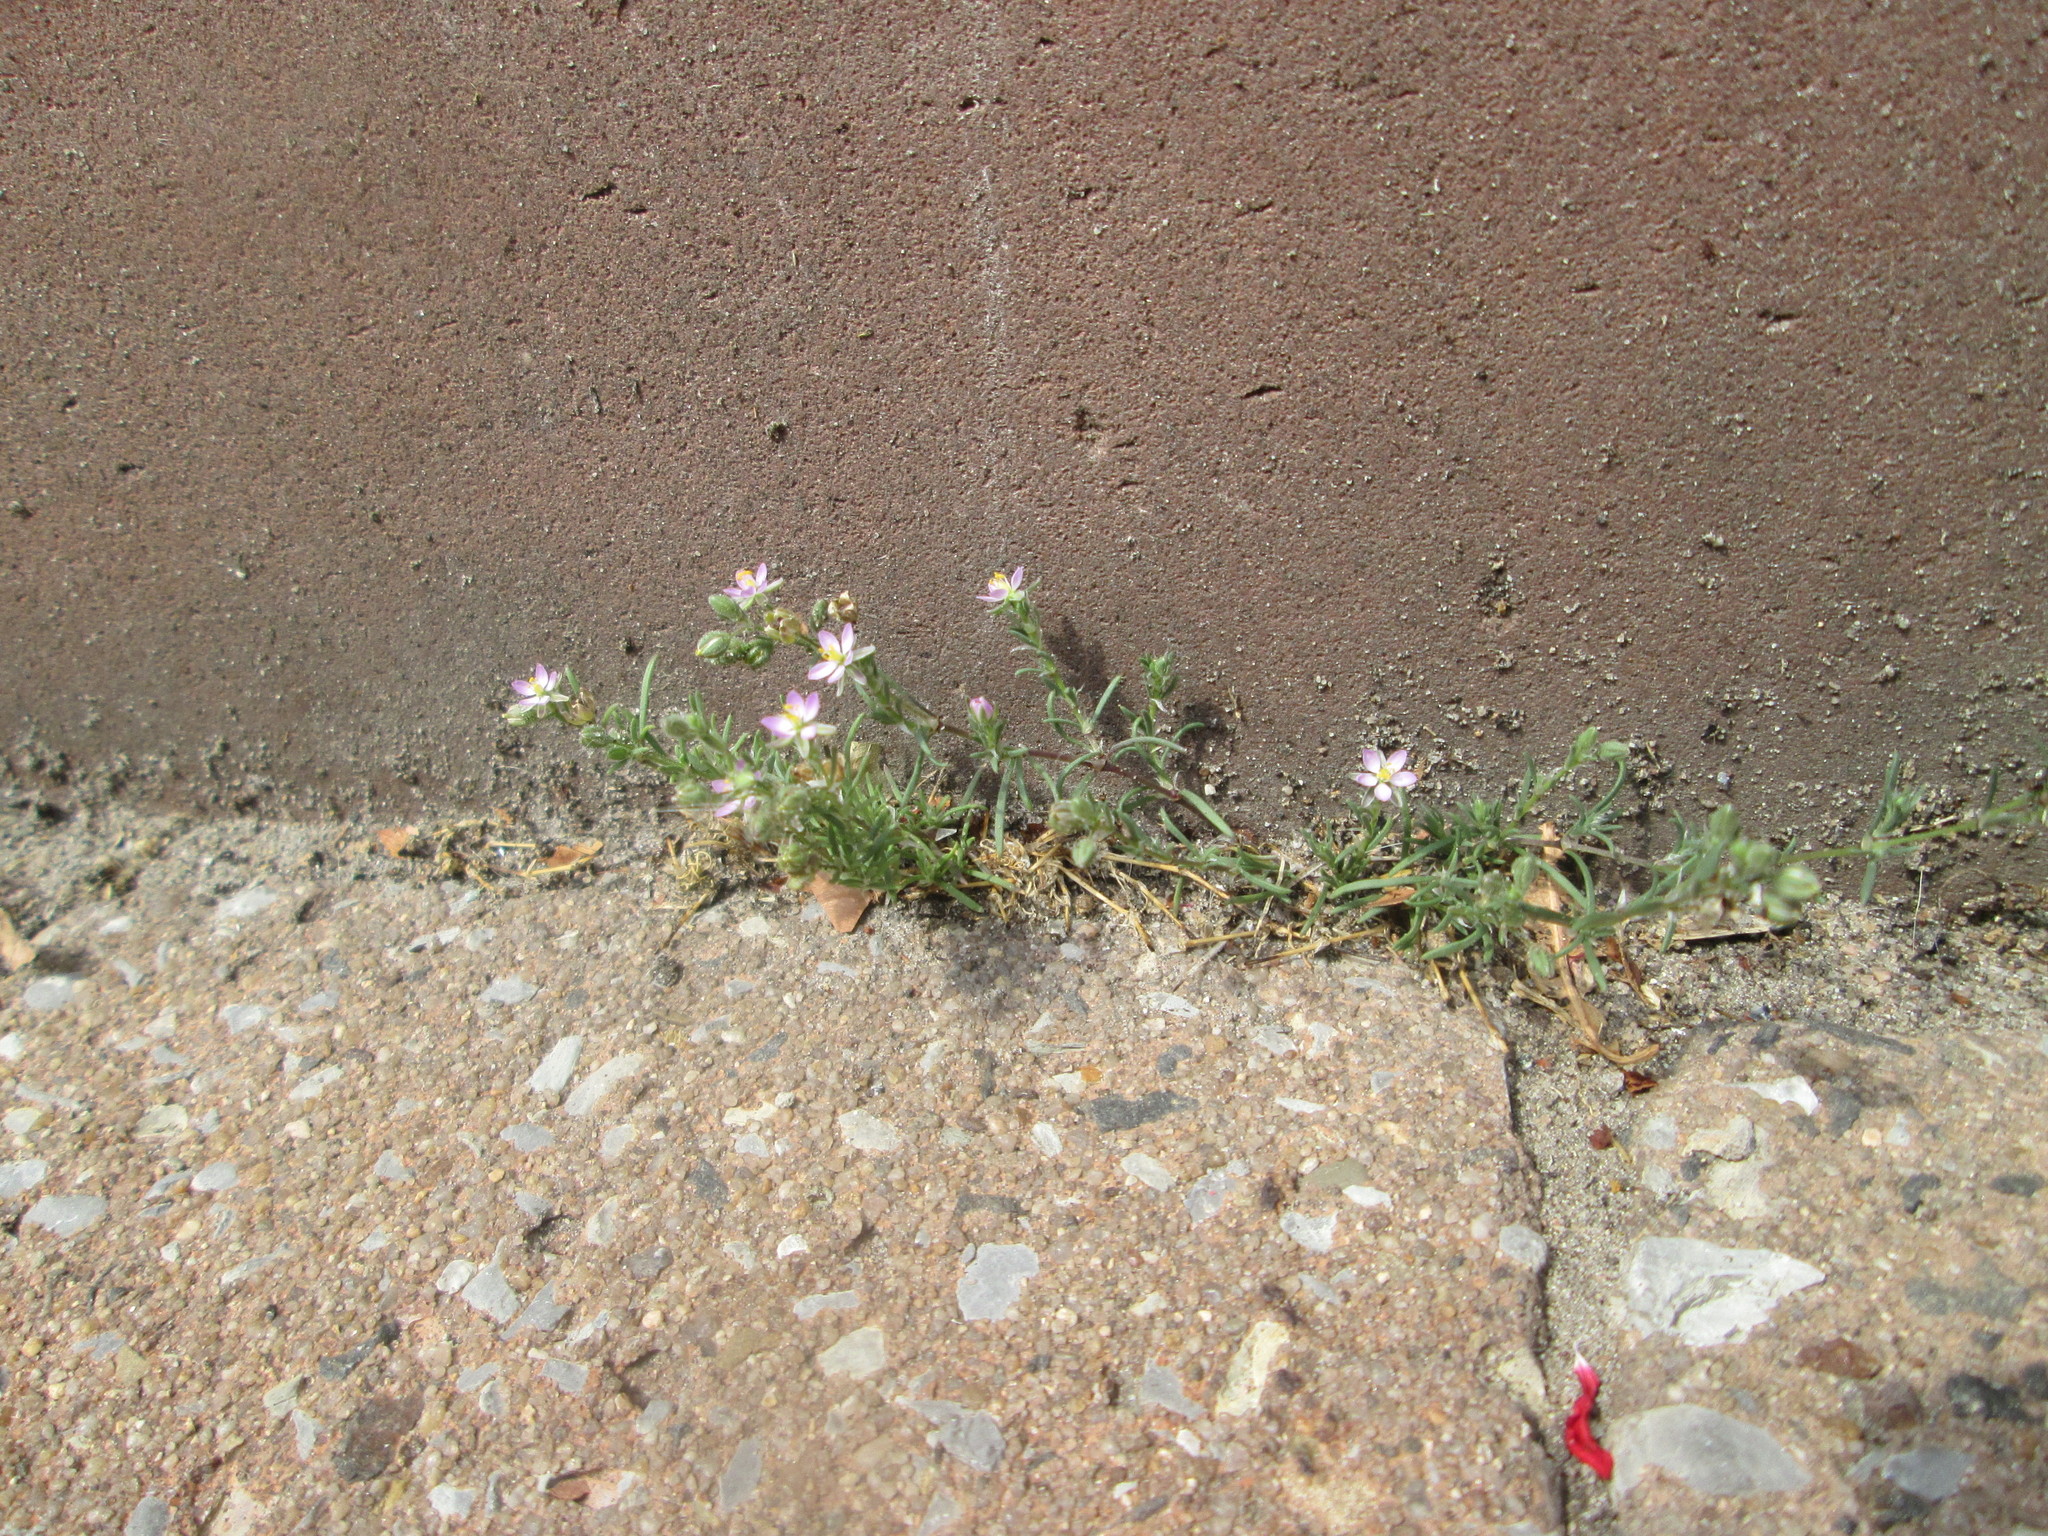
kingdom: Plantae
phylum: Tracheophyta
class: Magnoliopsida
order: Caryophyllales
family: Caryophyllaceae
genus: Spergularia
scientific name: Spergularia rubra
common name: Red sand-spurrey
